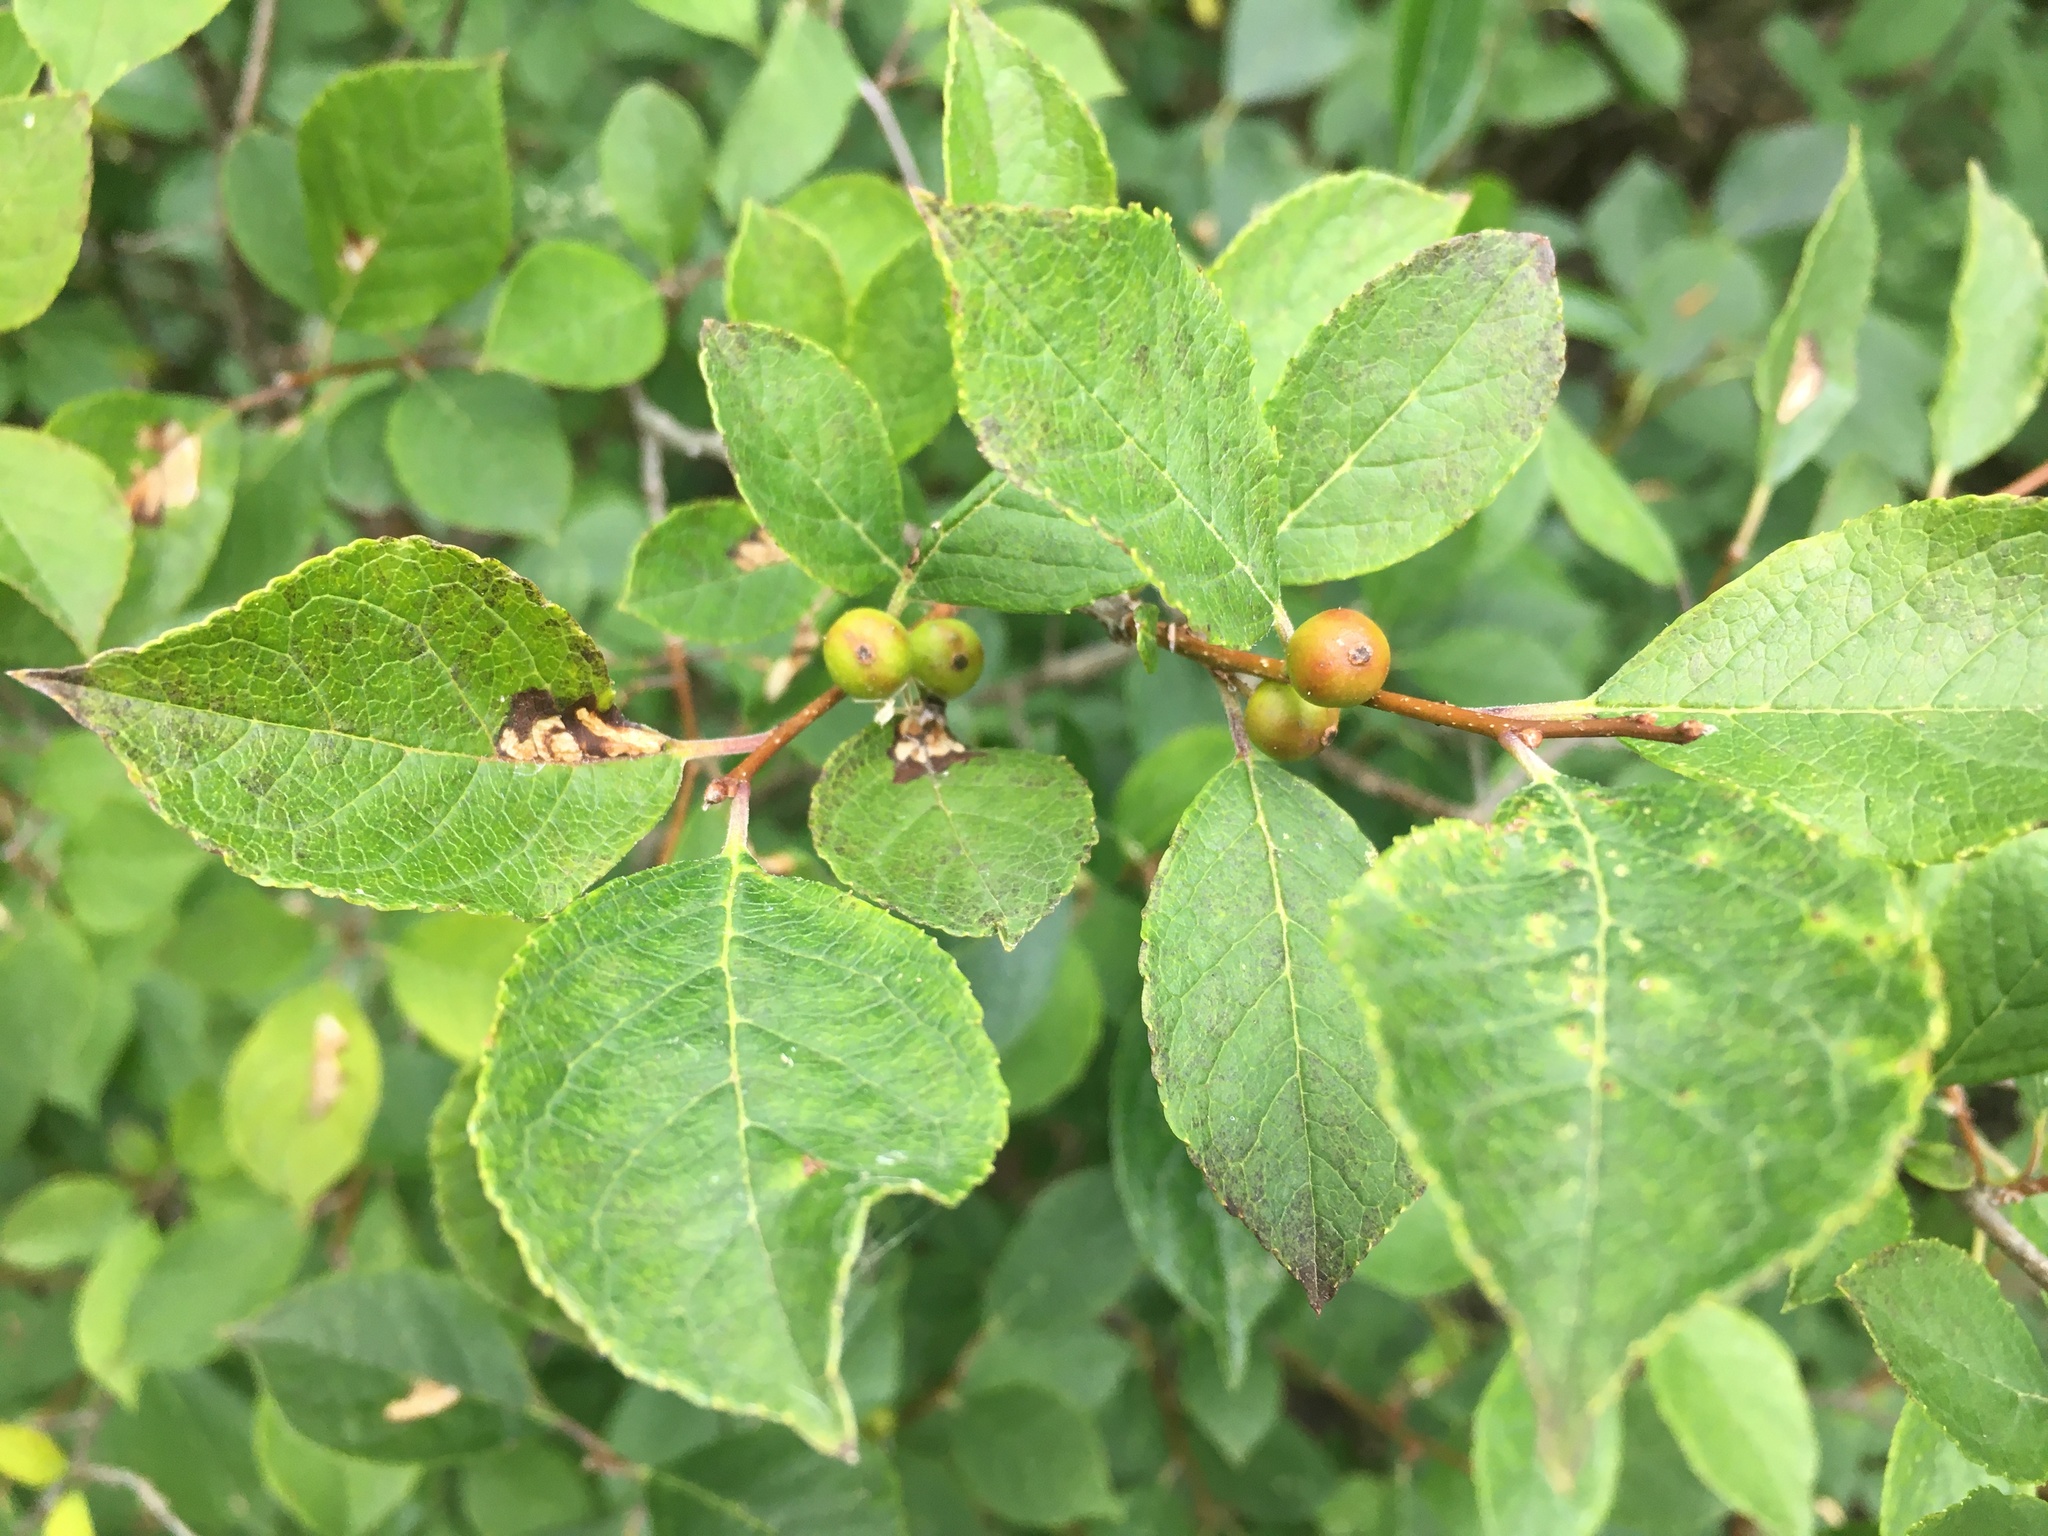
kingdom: Plantae
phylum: Tracheophyta
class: Magnoliopsida
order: Aquifoliales
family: Aquifoliaceae
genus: Ilex
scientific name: Ilex verticillata
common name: Virginia winterberry
